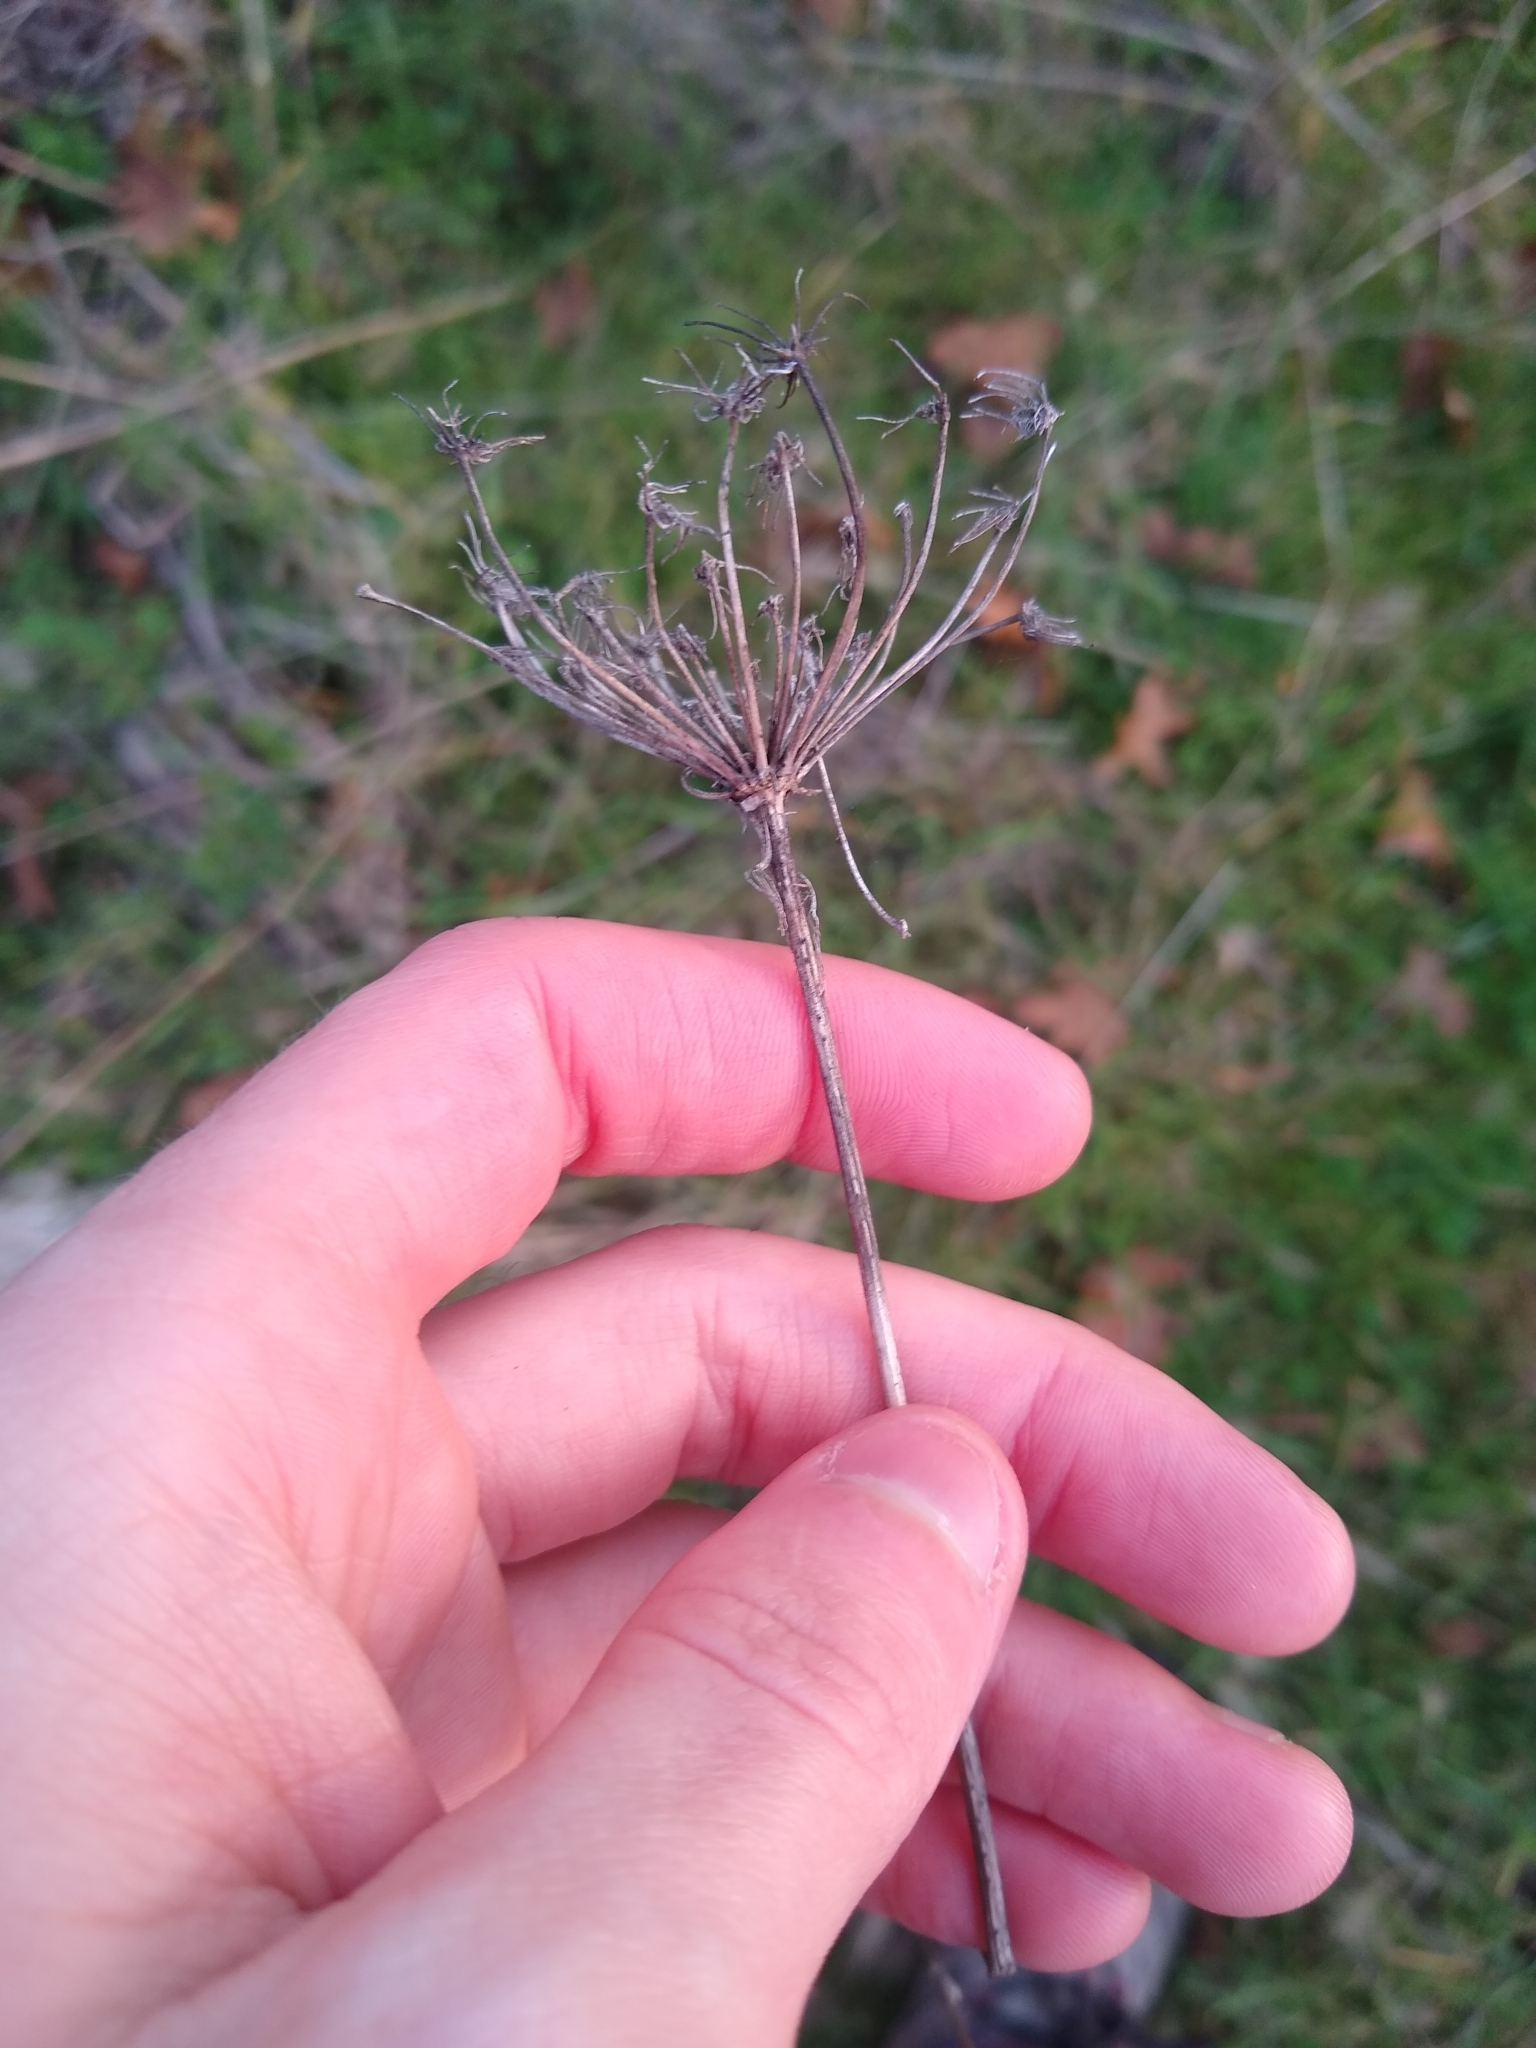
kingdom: Plantae
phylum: Tracheophyta
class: Magnoliopsida
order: Apiales
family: Apiaceae
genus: Daucus
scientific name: Daucus carota
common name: Wild carrot
